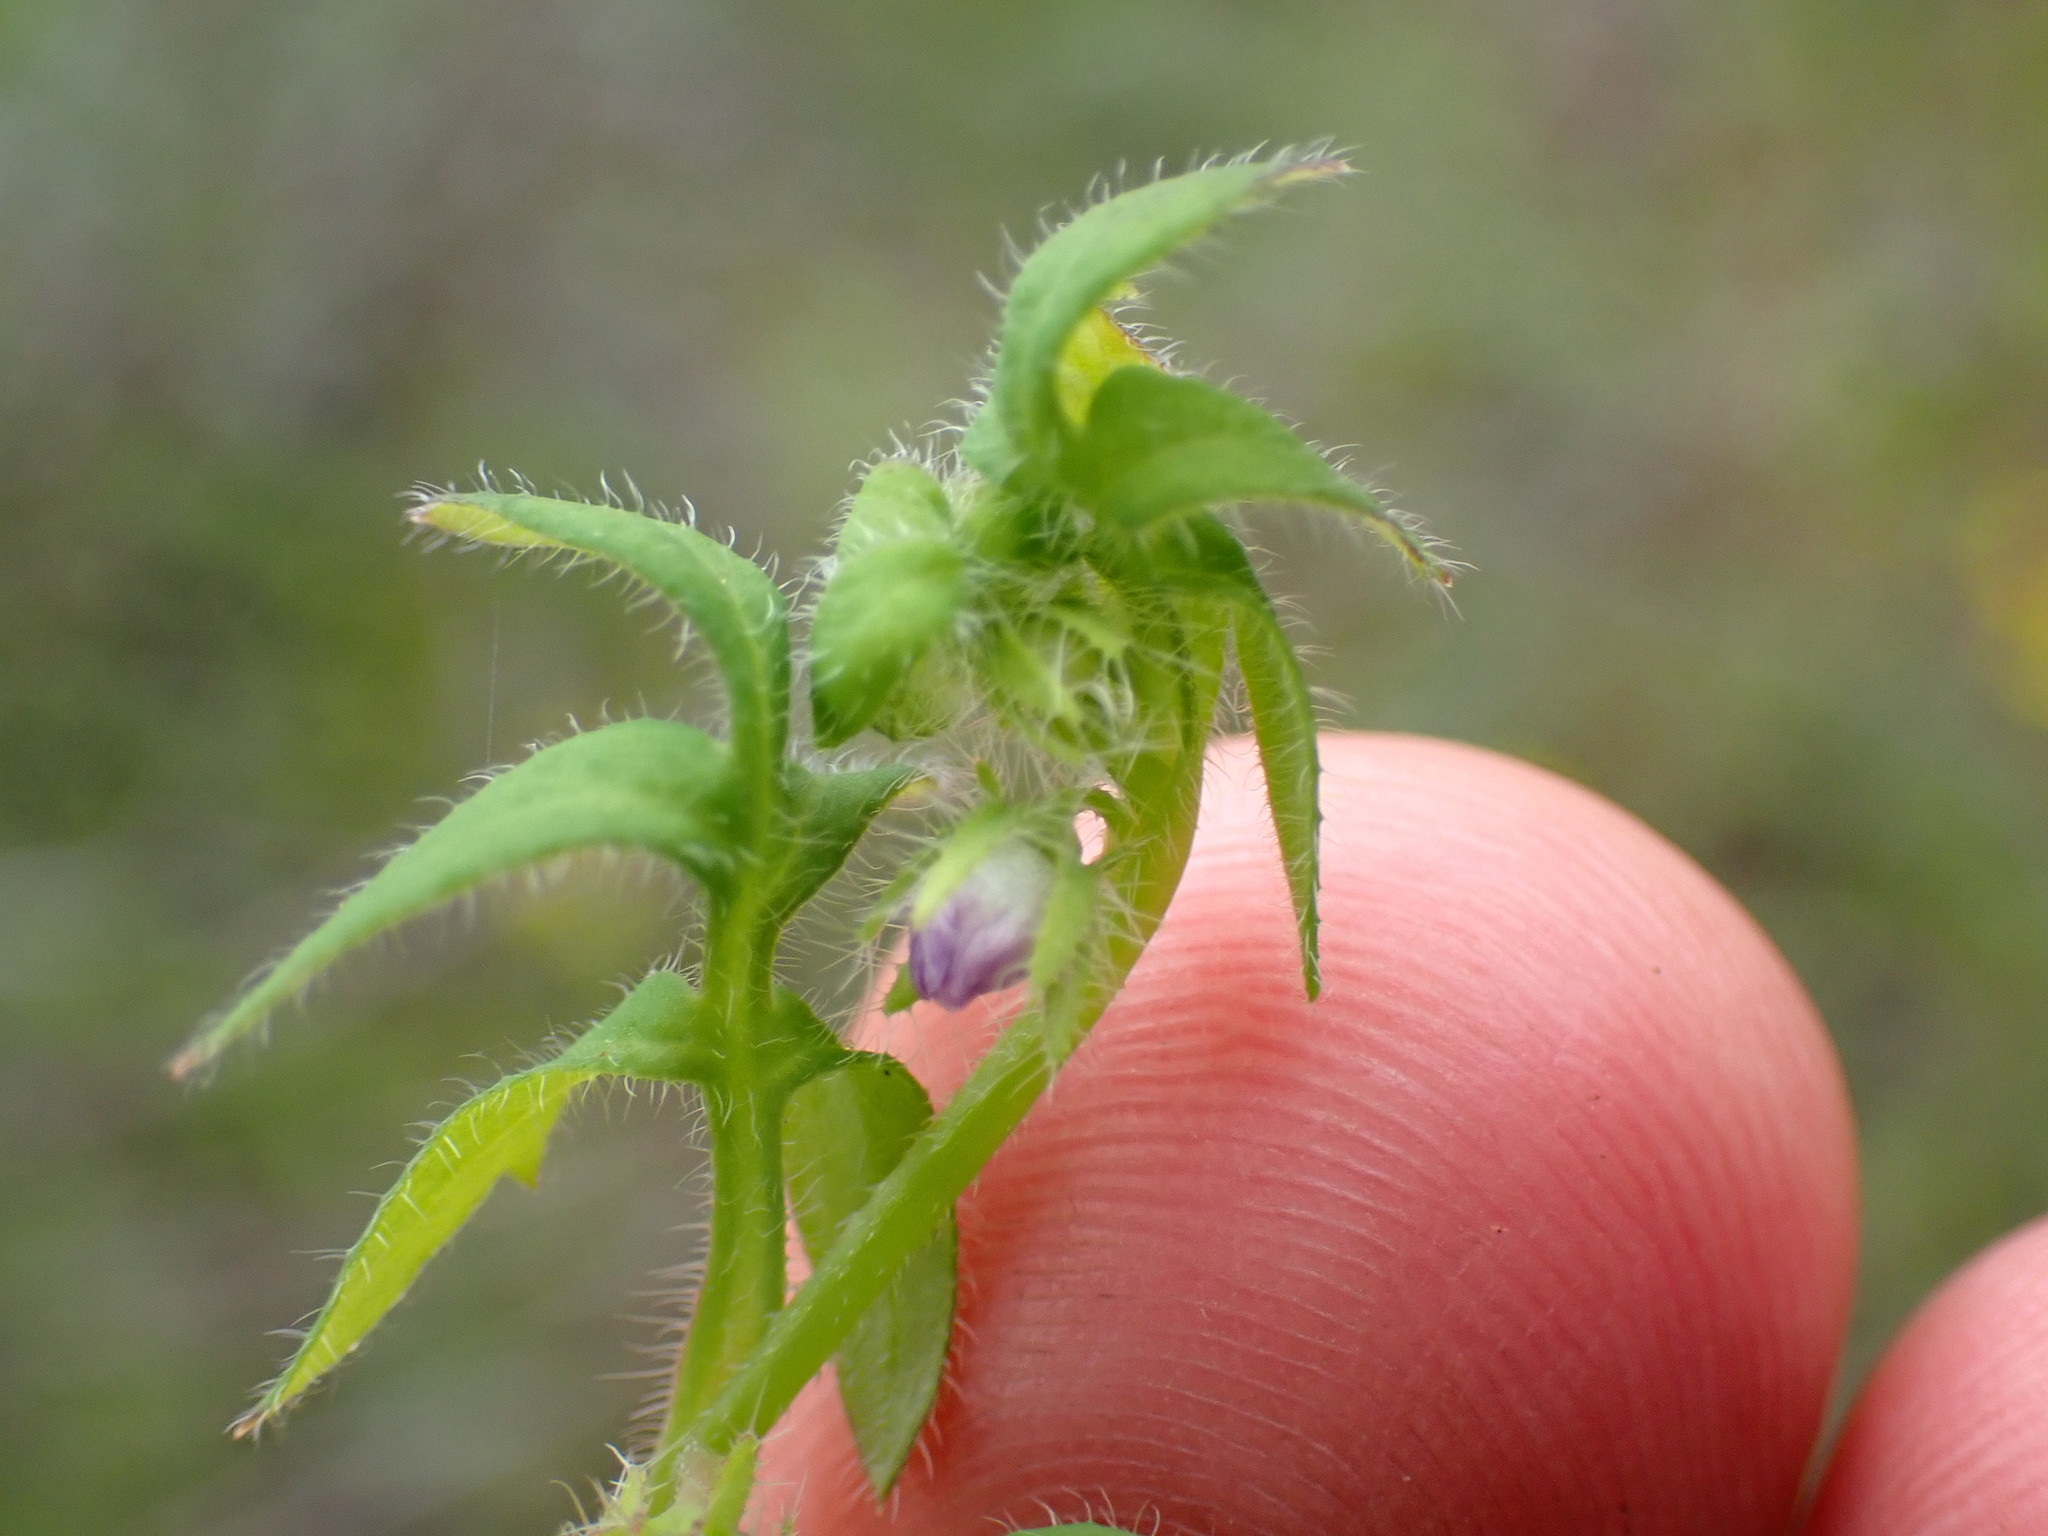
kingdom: Plantae
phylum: Tracheophyta
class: Magnoliopsida
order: Boraginales
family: Hydrophyllaceae
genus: Nemophila
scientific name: Nemophila breviflora
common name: Great basin baby-blue-eyes
